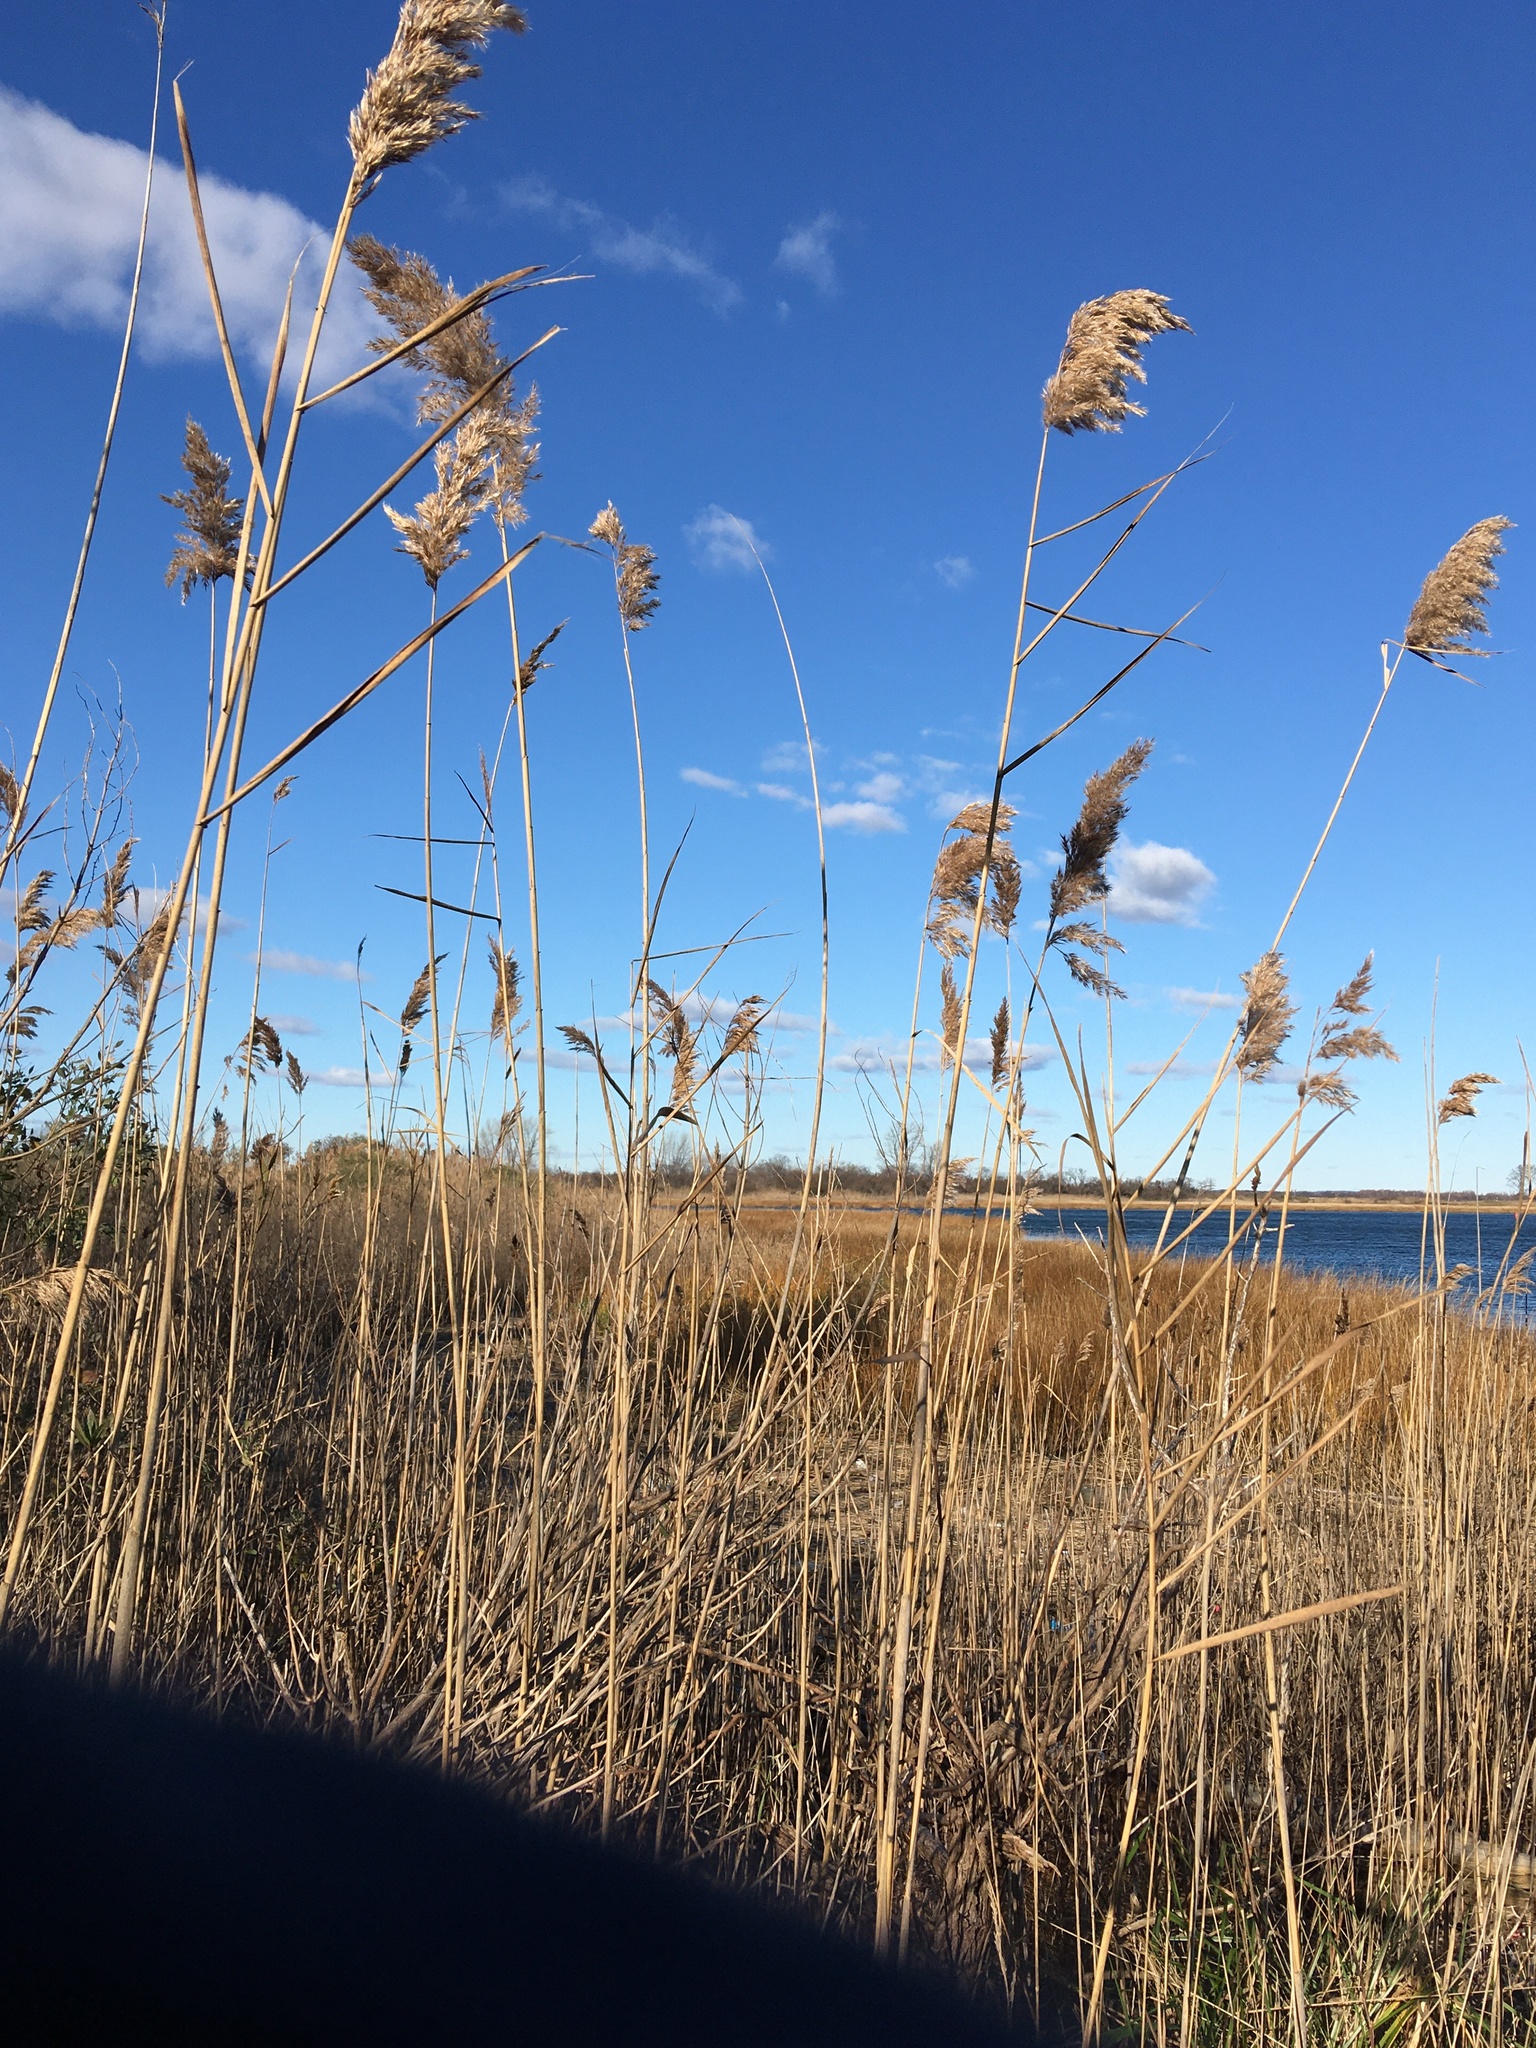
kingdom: Plantae
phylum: Tracheophyta
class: Liliopsida
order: Poales
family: Poaceae
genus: Phragmites
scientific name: Phragmites australis
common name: Common reed
